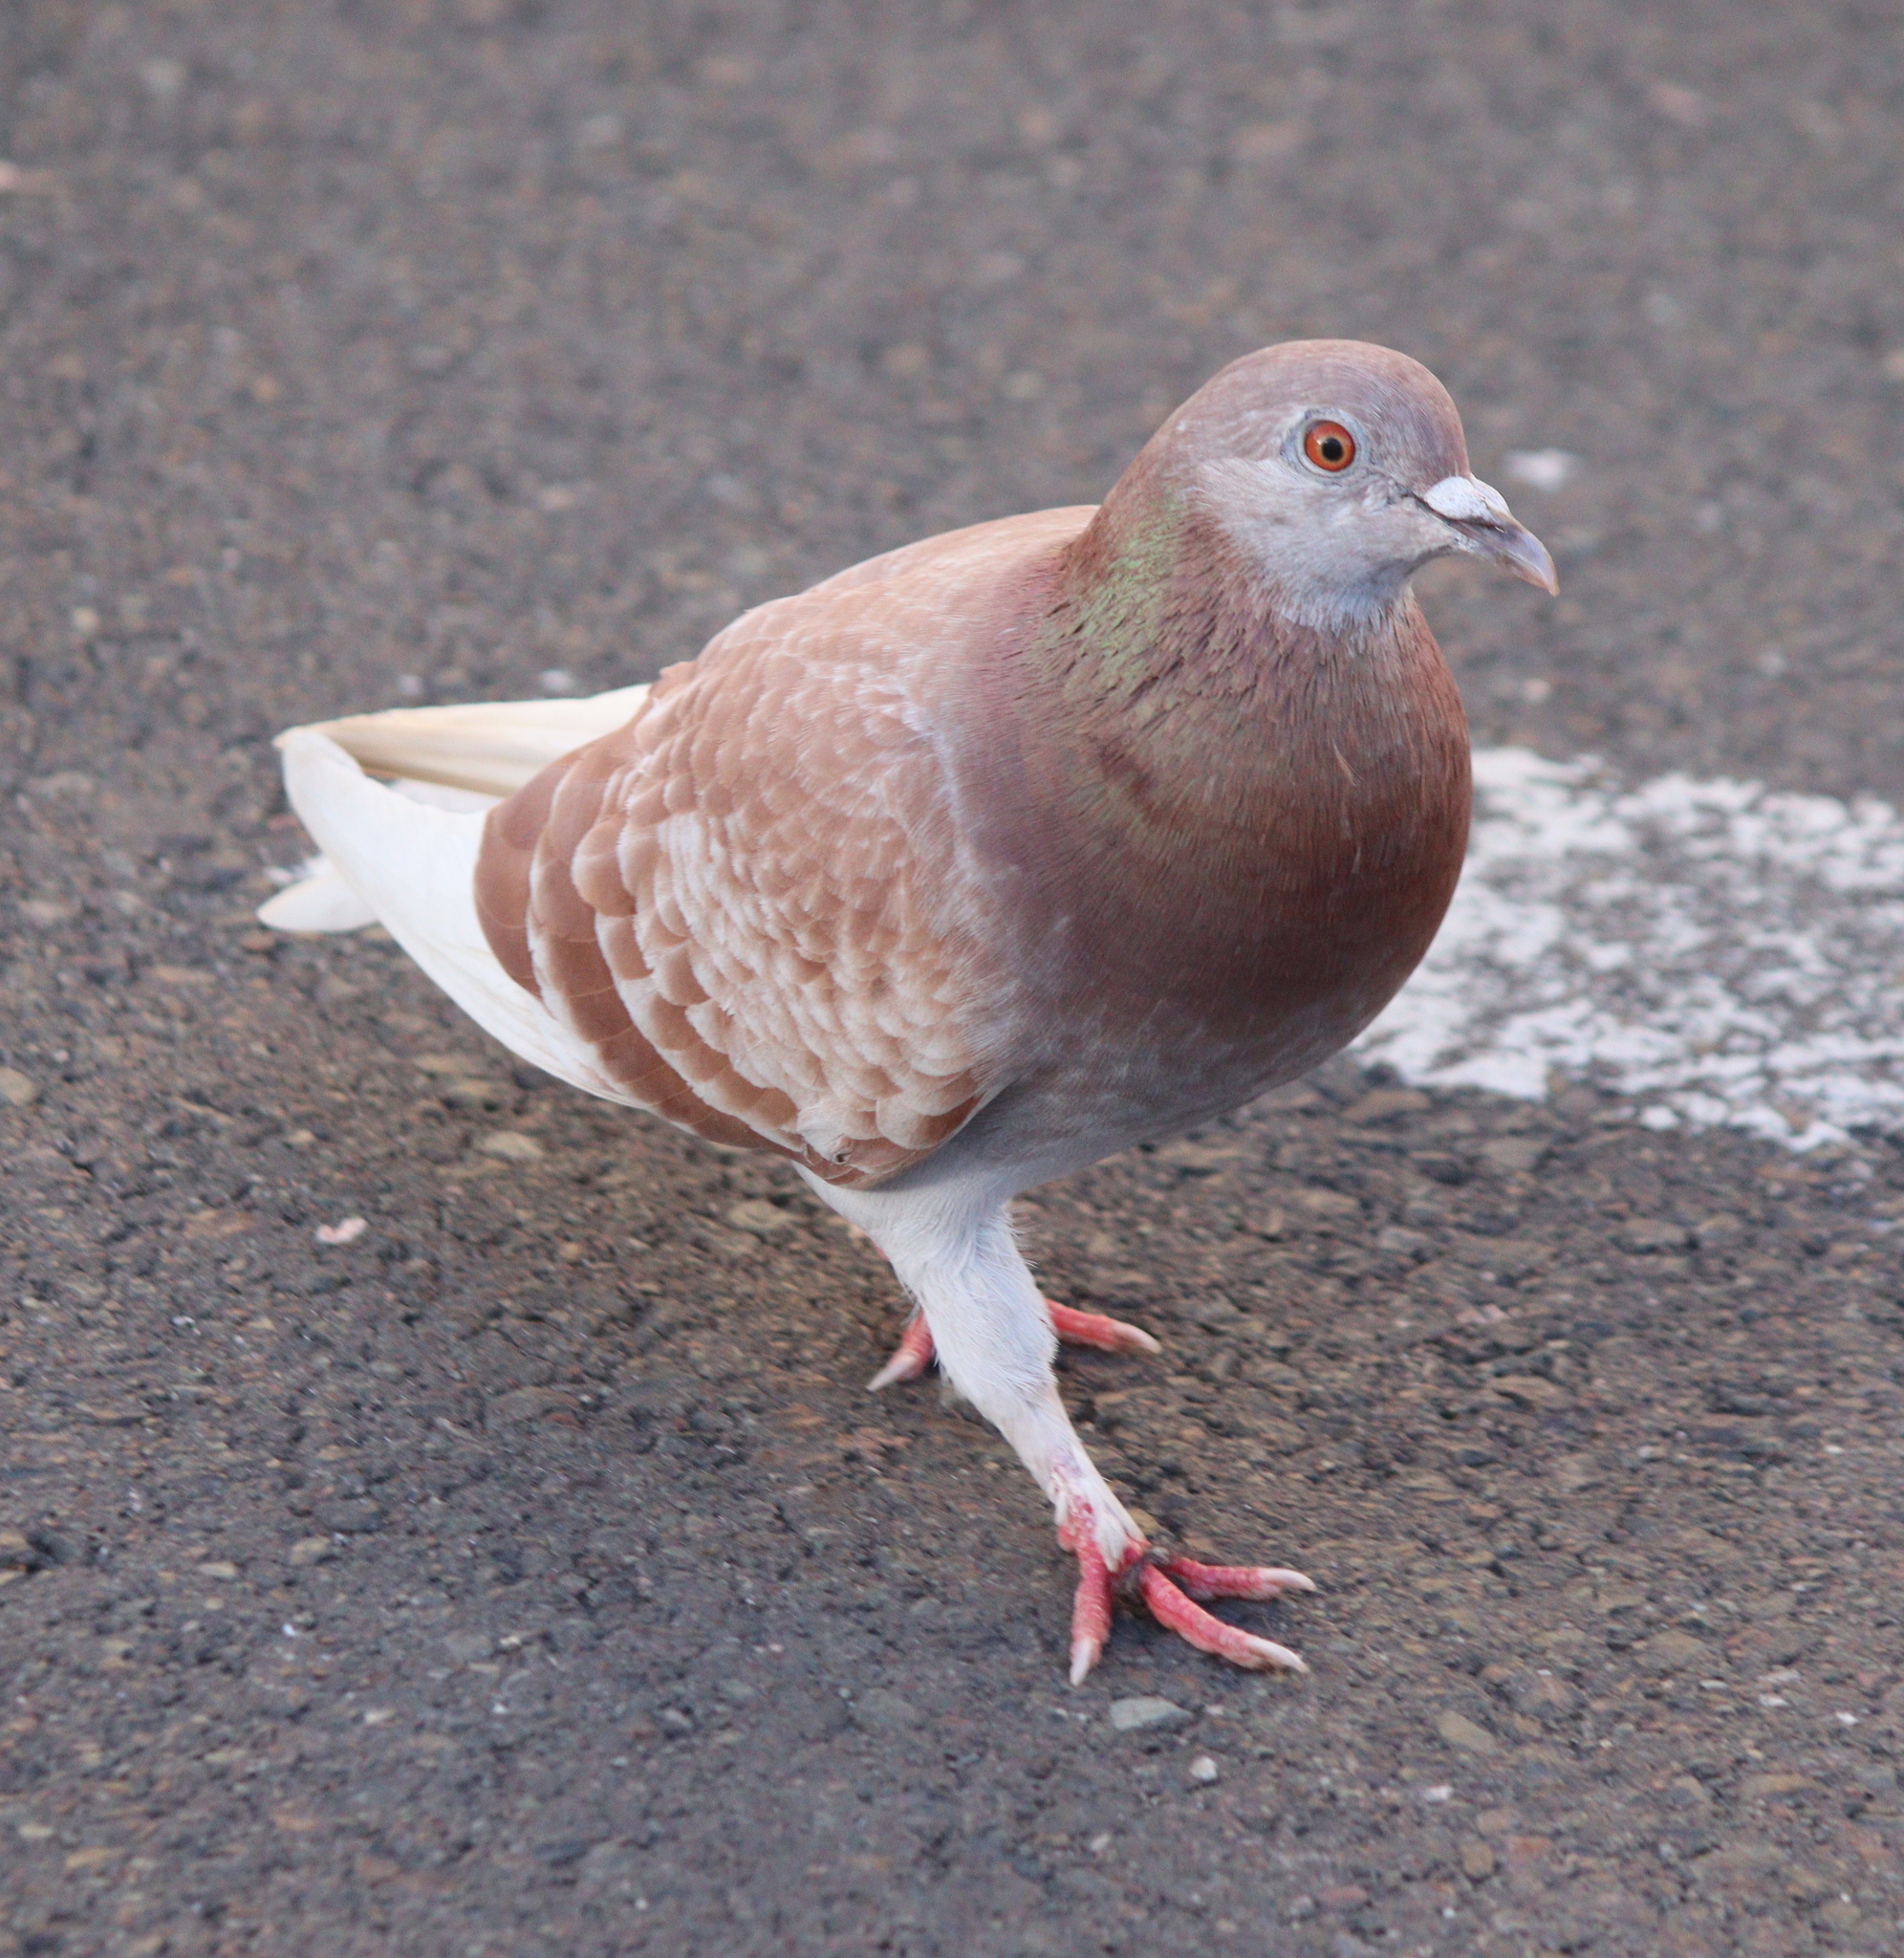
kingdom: Animalia
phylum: Chordata
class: Aves
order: Columbiformes
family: Columbidae
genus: Columba
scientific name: Columba livia
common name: Rock pigeon
